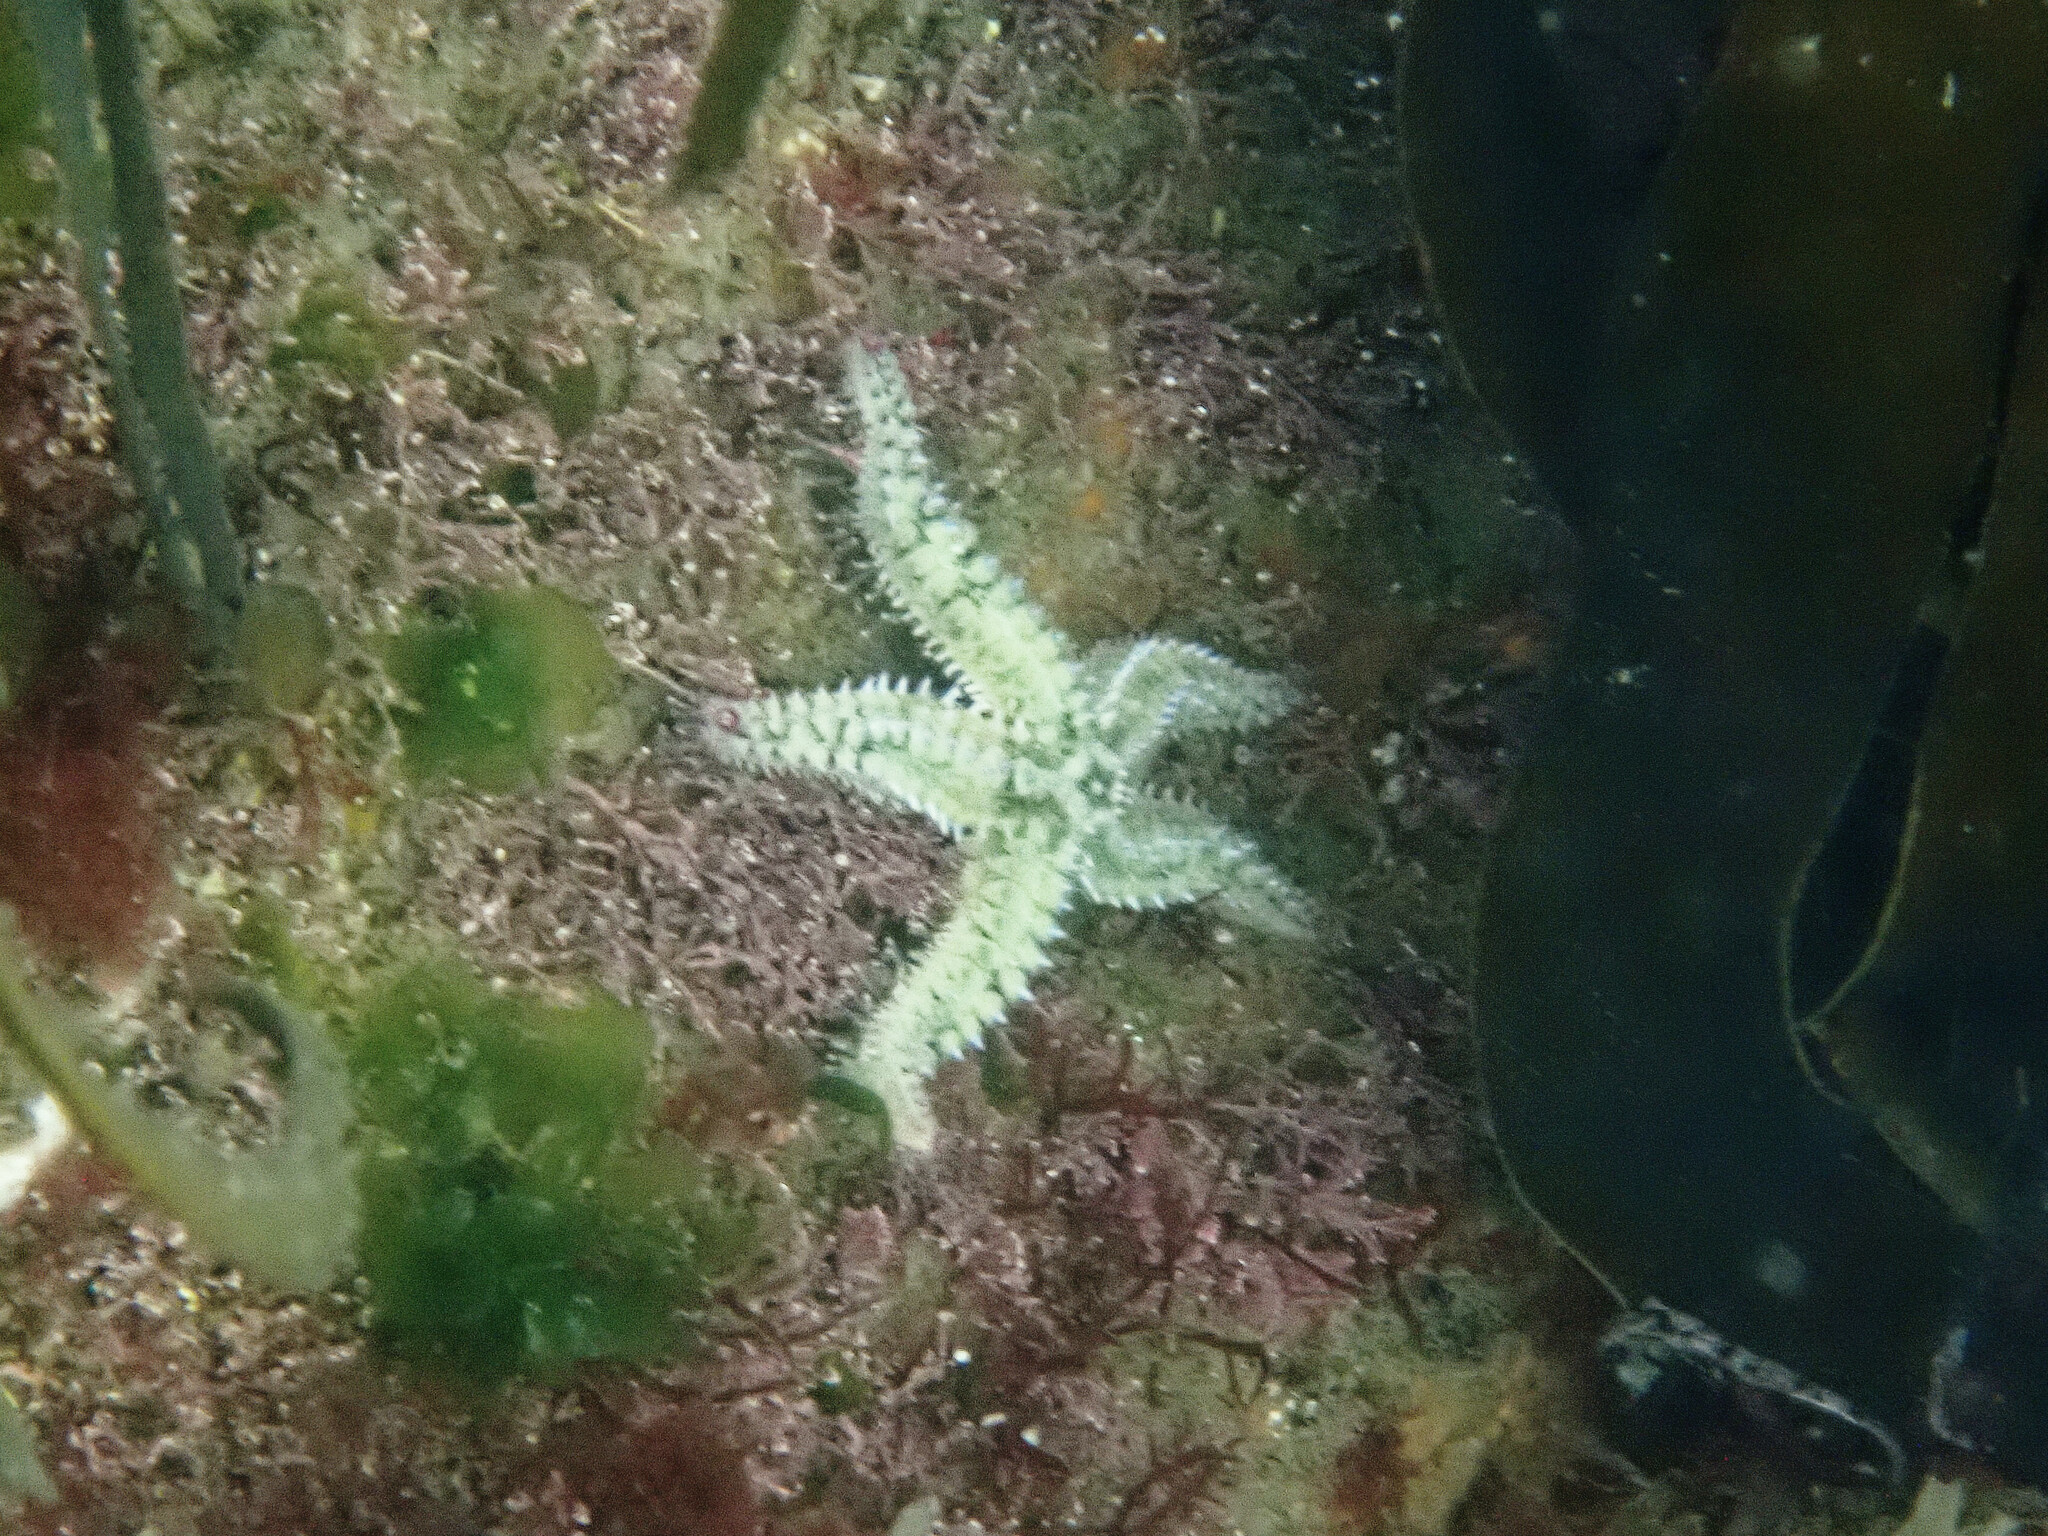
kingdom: Animalia
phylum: Echinodermata
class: Asteroidea
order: Forcipulatida
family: Asteriidae
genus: Marthasterias
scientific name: Marthasterias glacialis
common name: Spiny starfish
